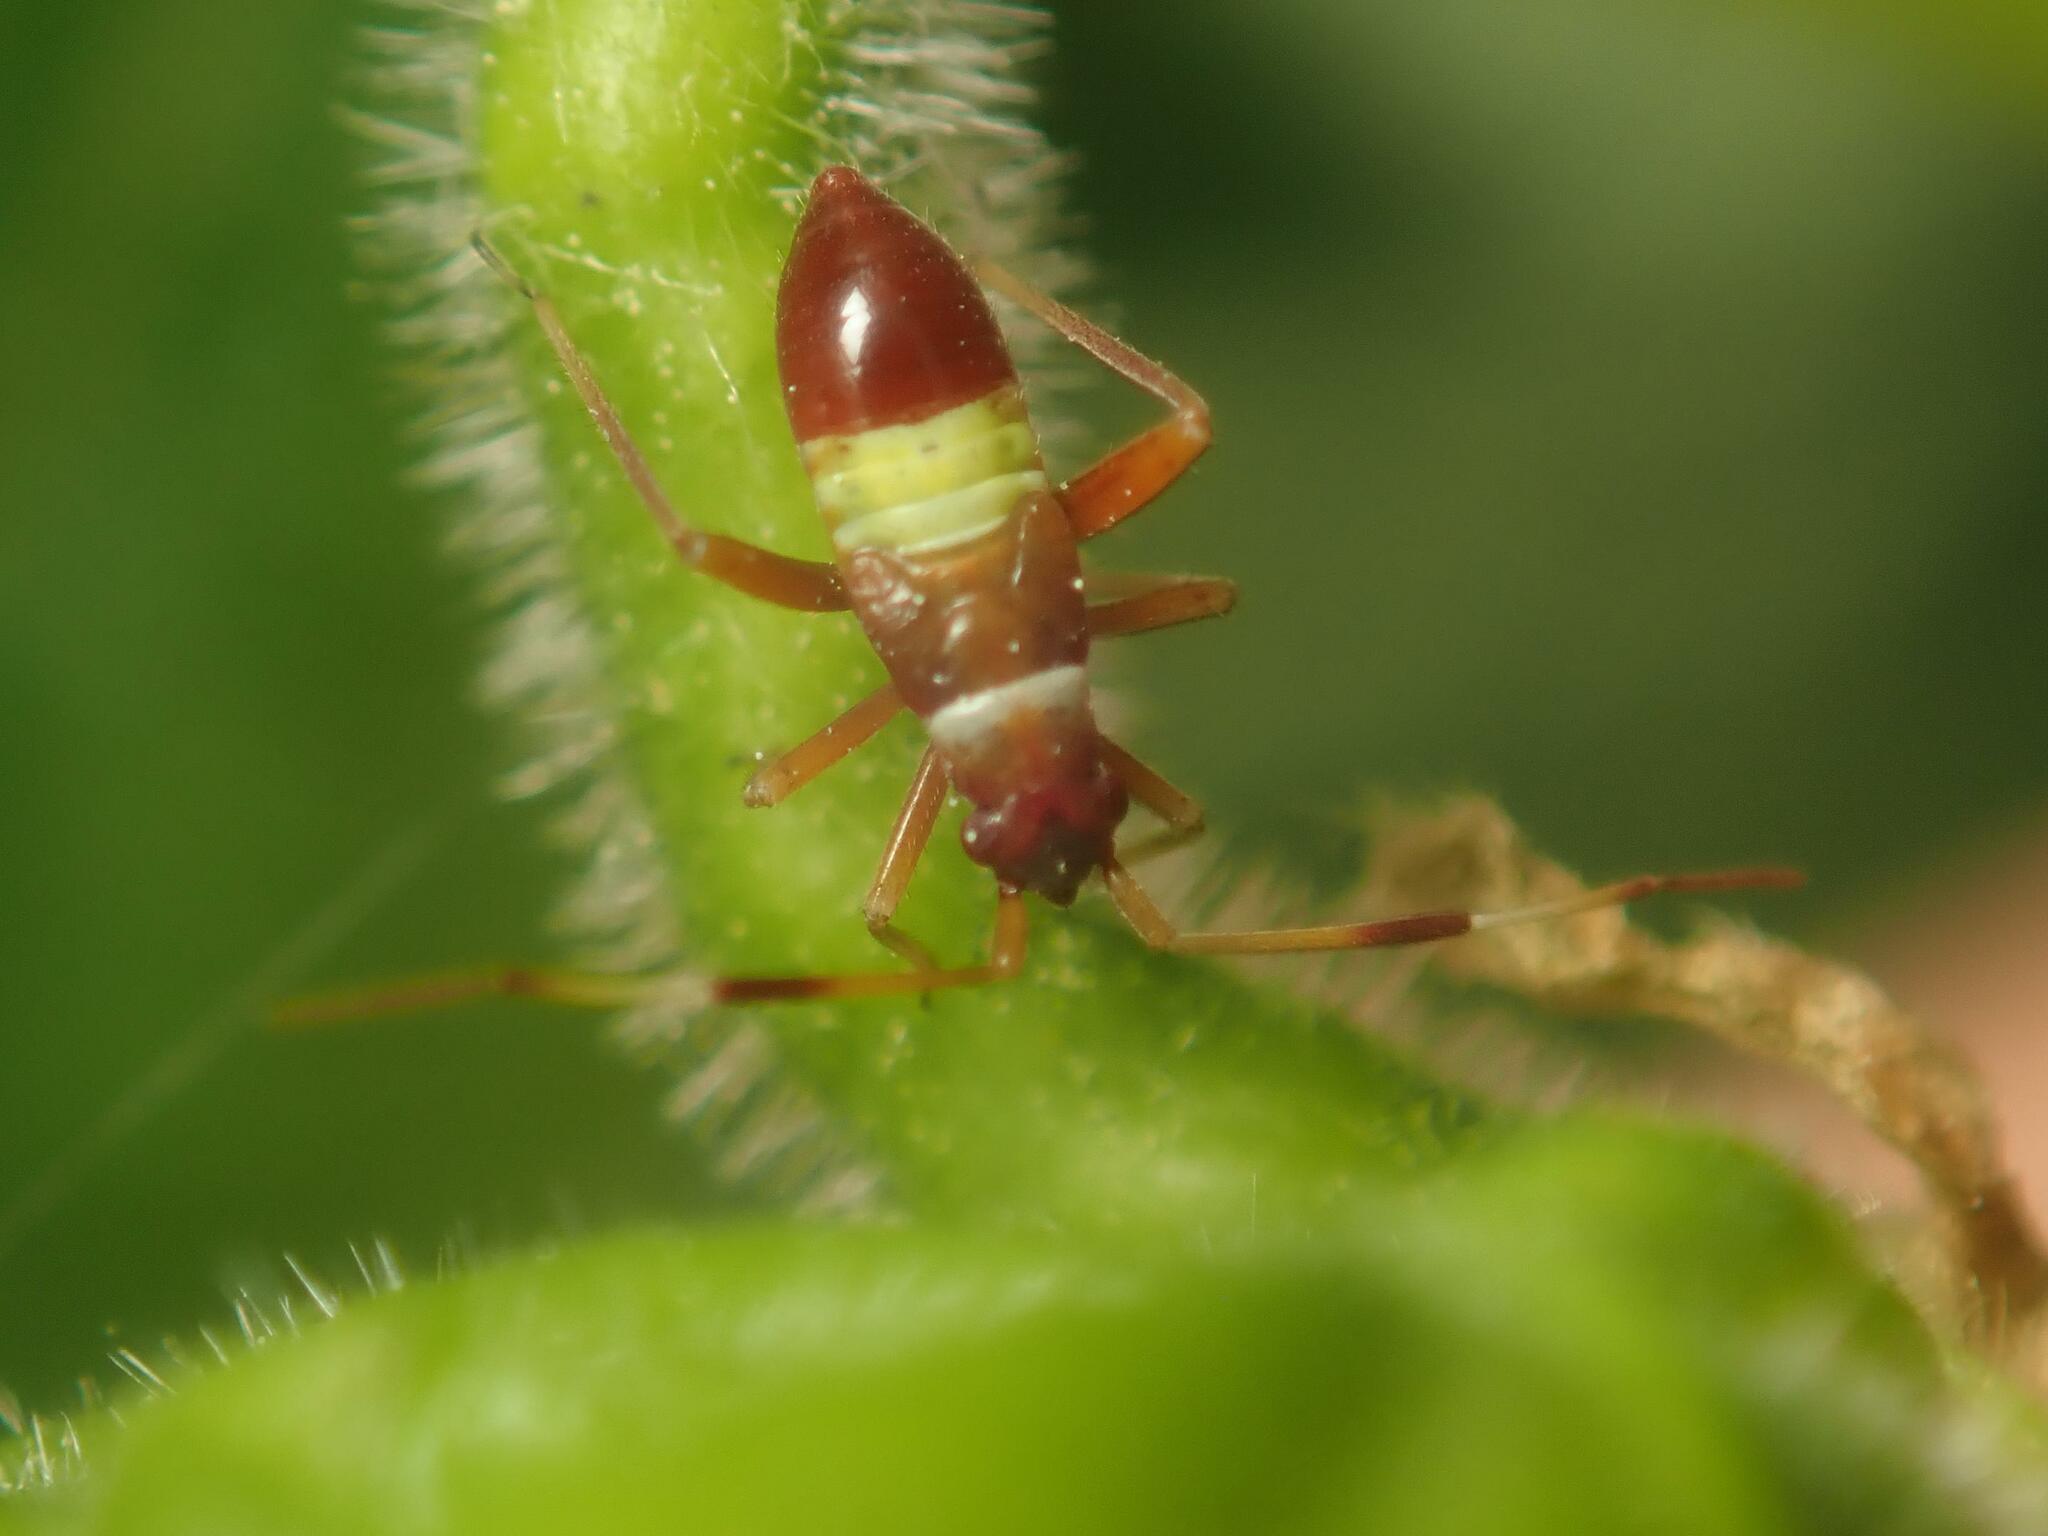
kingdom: Animalia
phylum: Arthropoda
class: Insecta
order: Hemiptera
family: Miridae
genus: Closterotomus
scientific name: Closterotomus biclavatus
